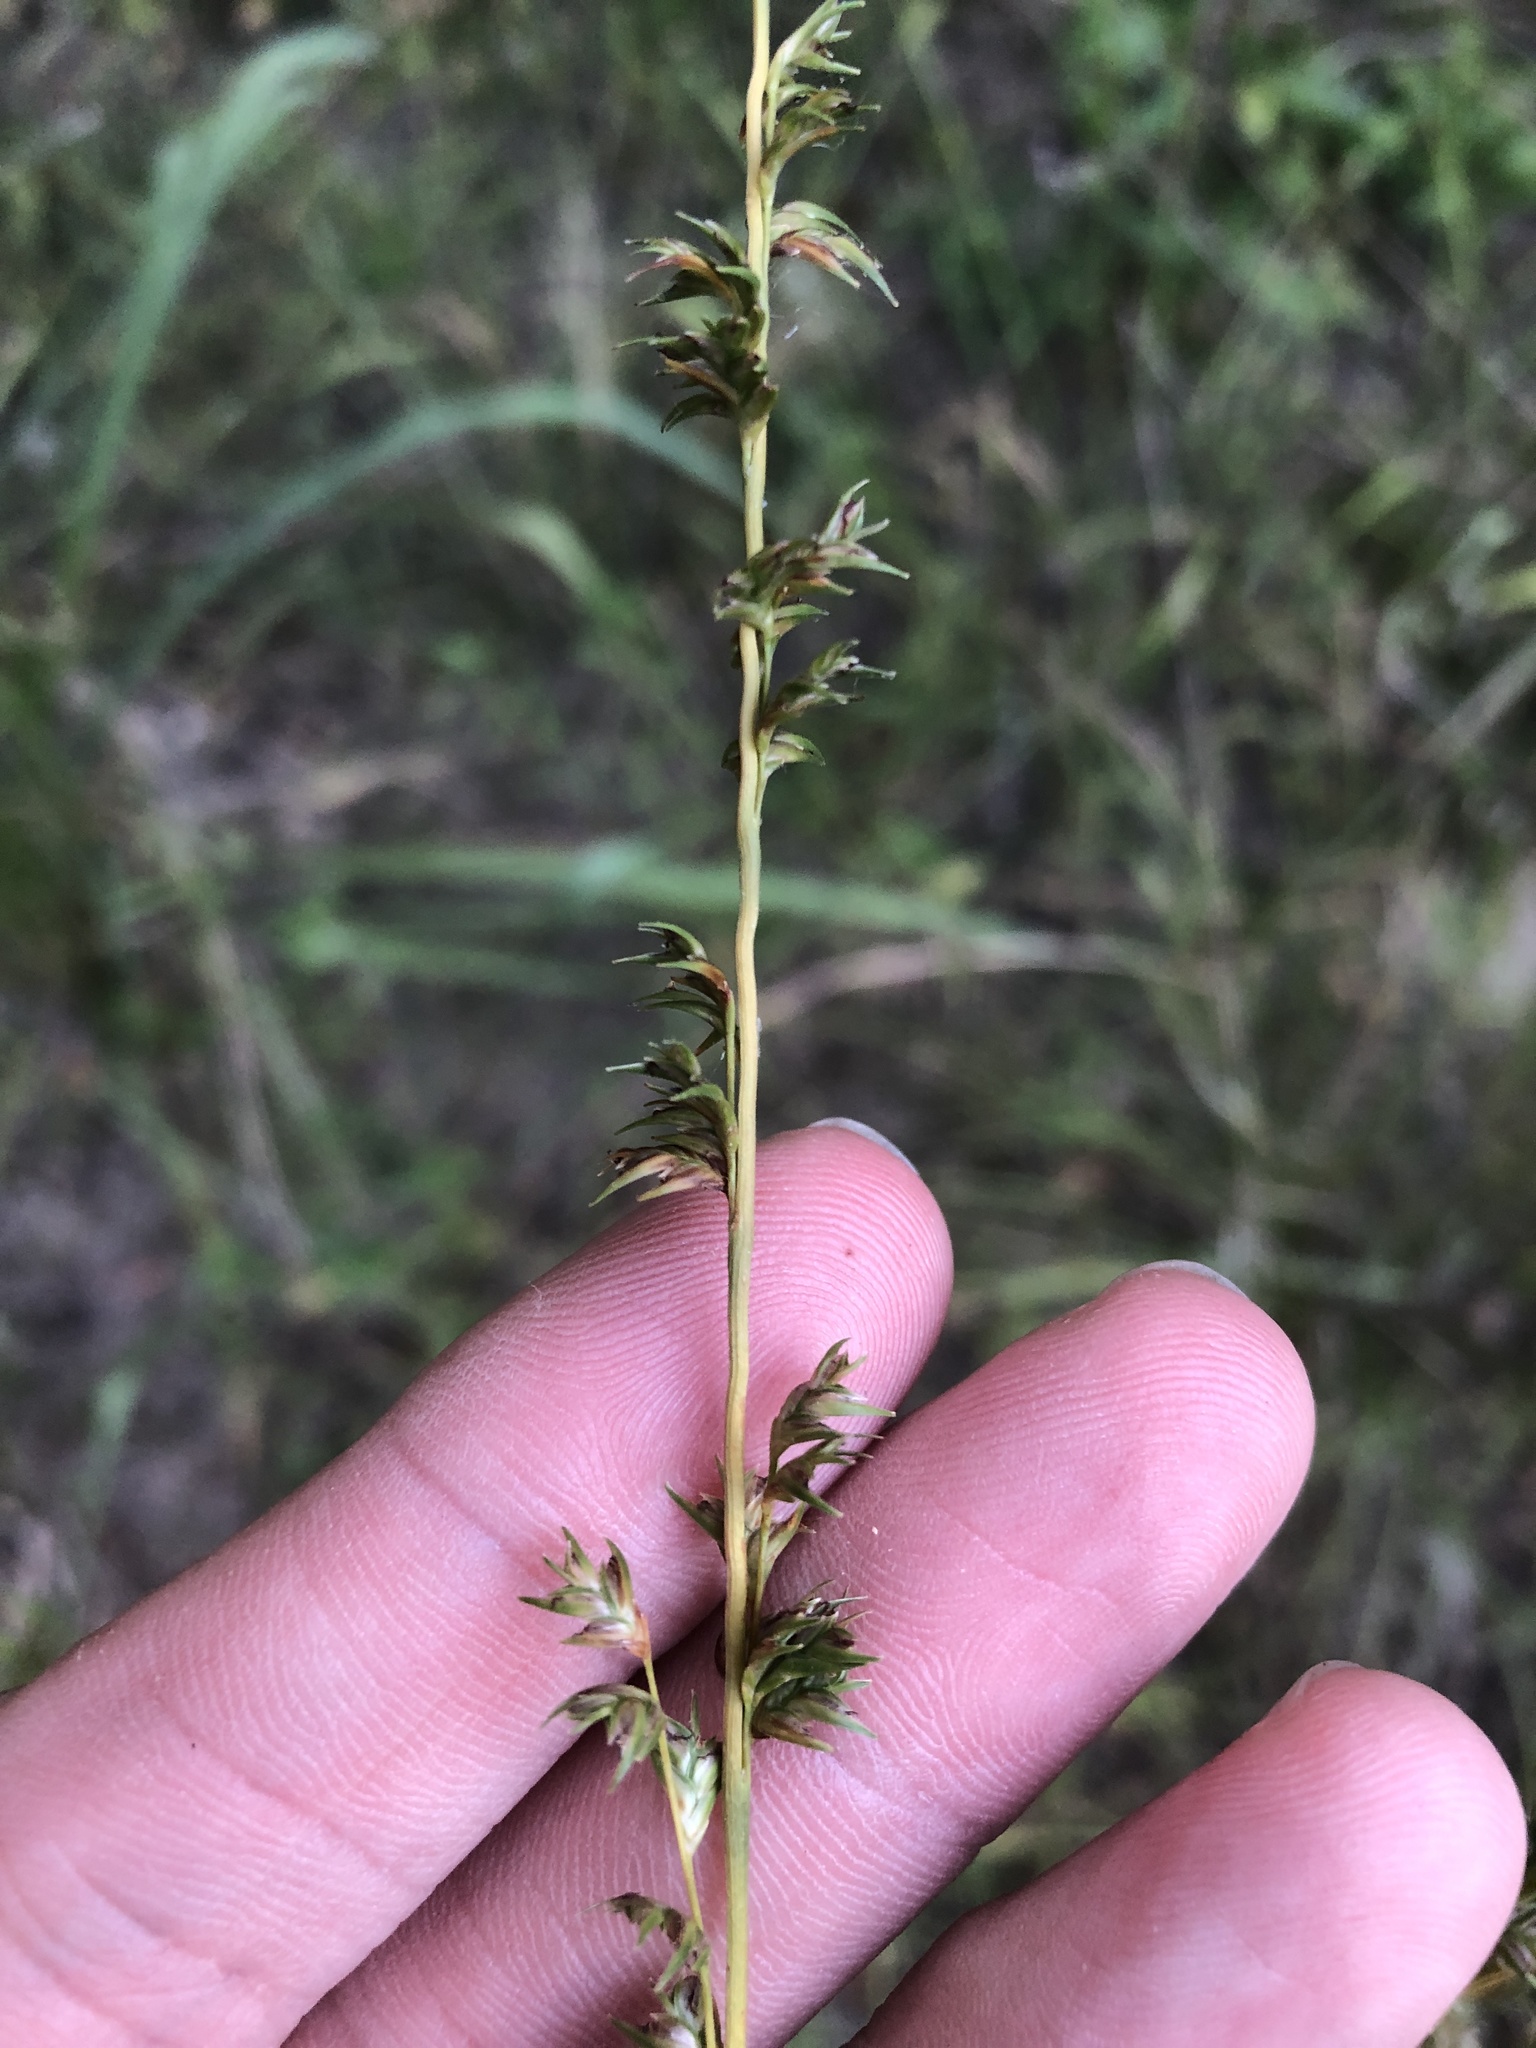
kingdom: Plantae
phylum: Tracheophyta
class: Liliopsida
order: Poales
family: Poaceae
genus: Chasmanthium
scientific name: Chasmanthium laxum
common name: Slender chasmanthium
